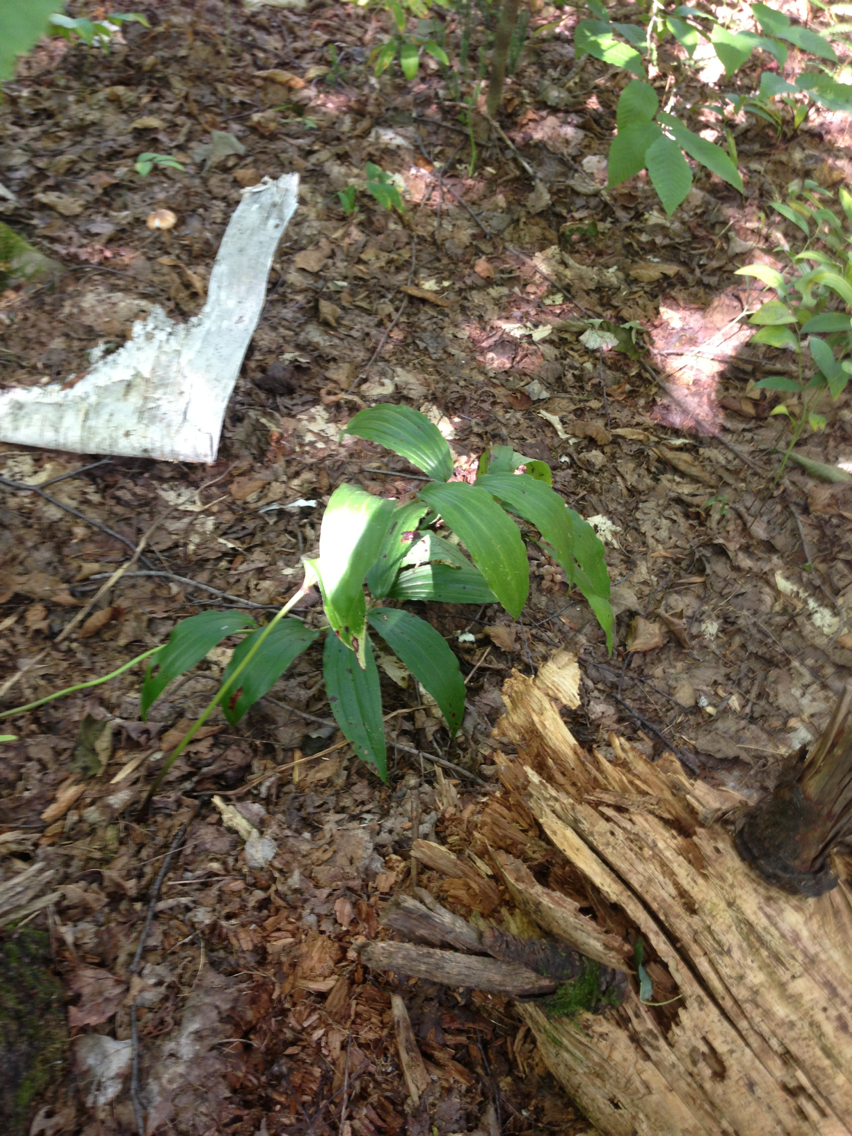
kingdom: Plantae
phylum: Tracheophyta
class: Liliopsida
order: Asparagales
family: Asparagaceae
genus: Maianthemum
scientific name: Maianthemum racemosum
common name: False spikenard
